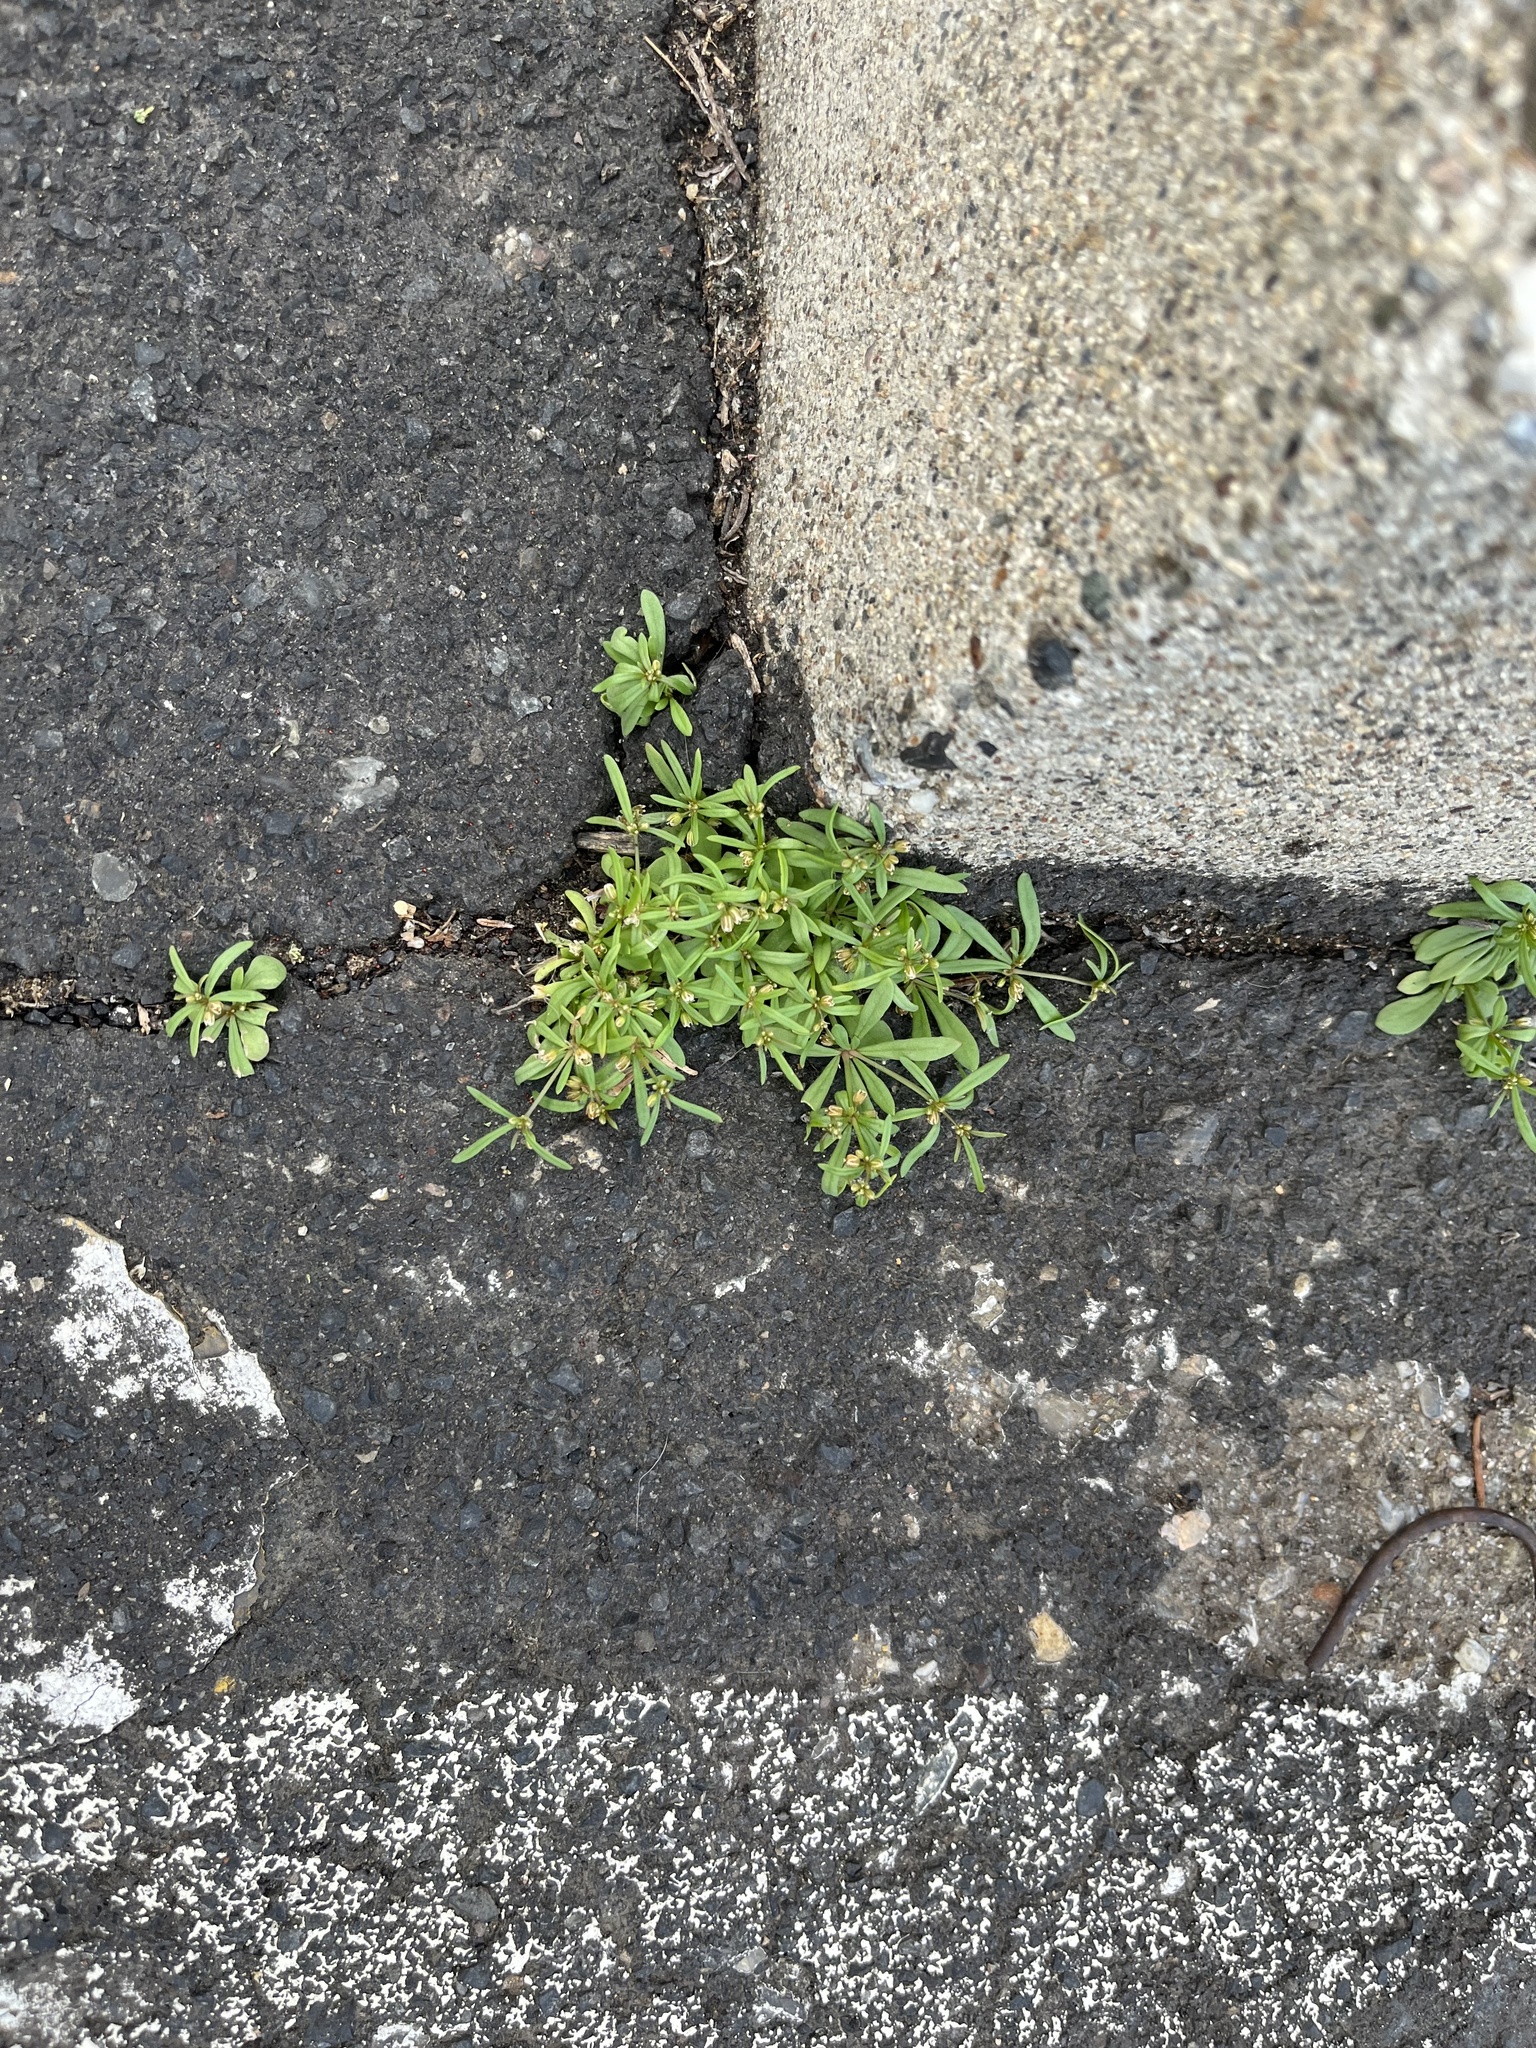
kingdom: Plantae
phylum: Tracheophyta
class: Magnoliopsida
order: Caryophyllales
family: Molluginaceae
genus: Mollugo
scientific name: Mollugo verticillata
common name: Green carpetweed
